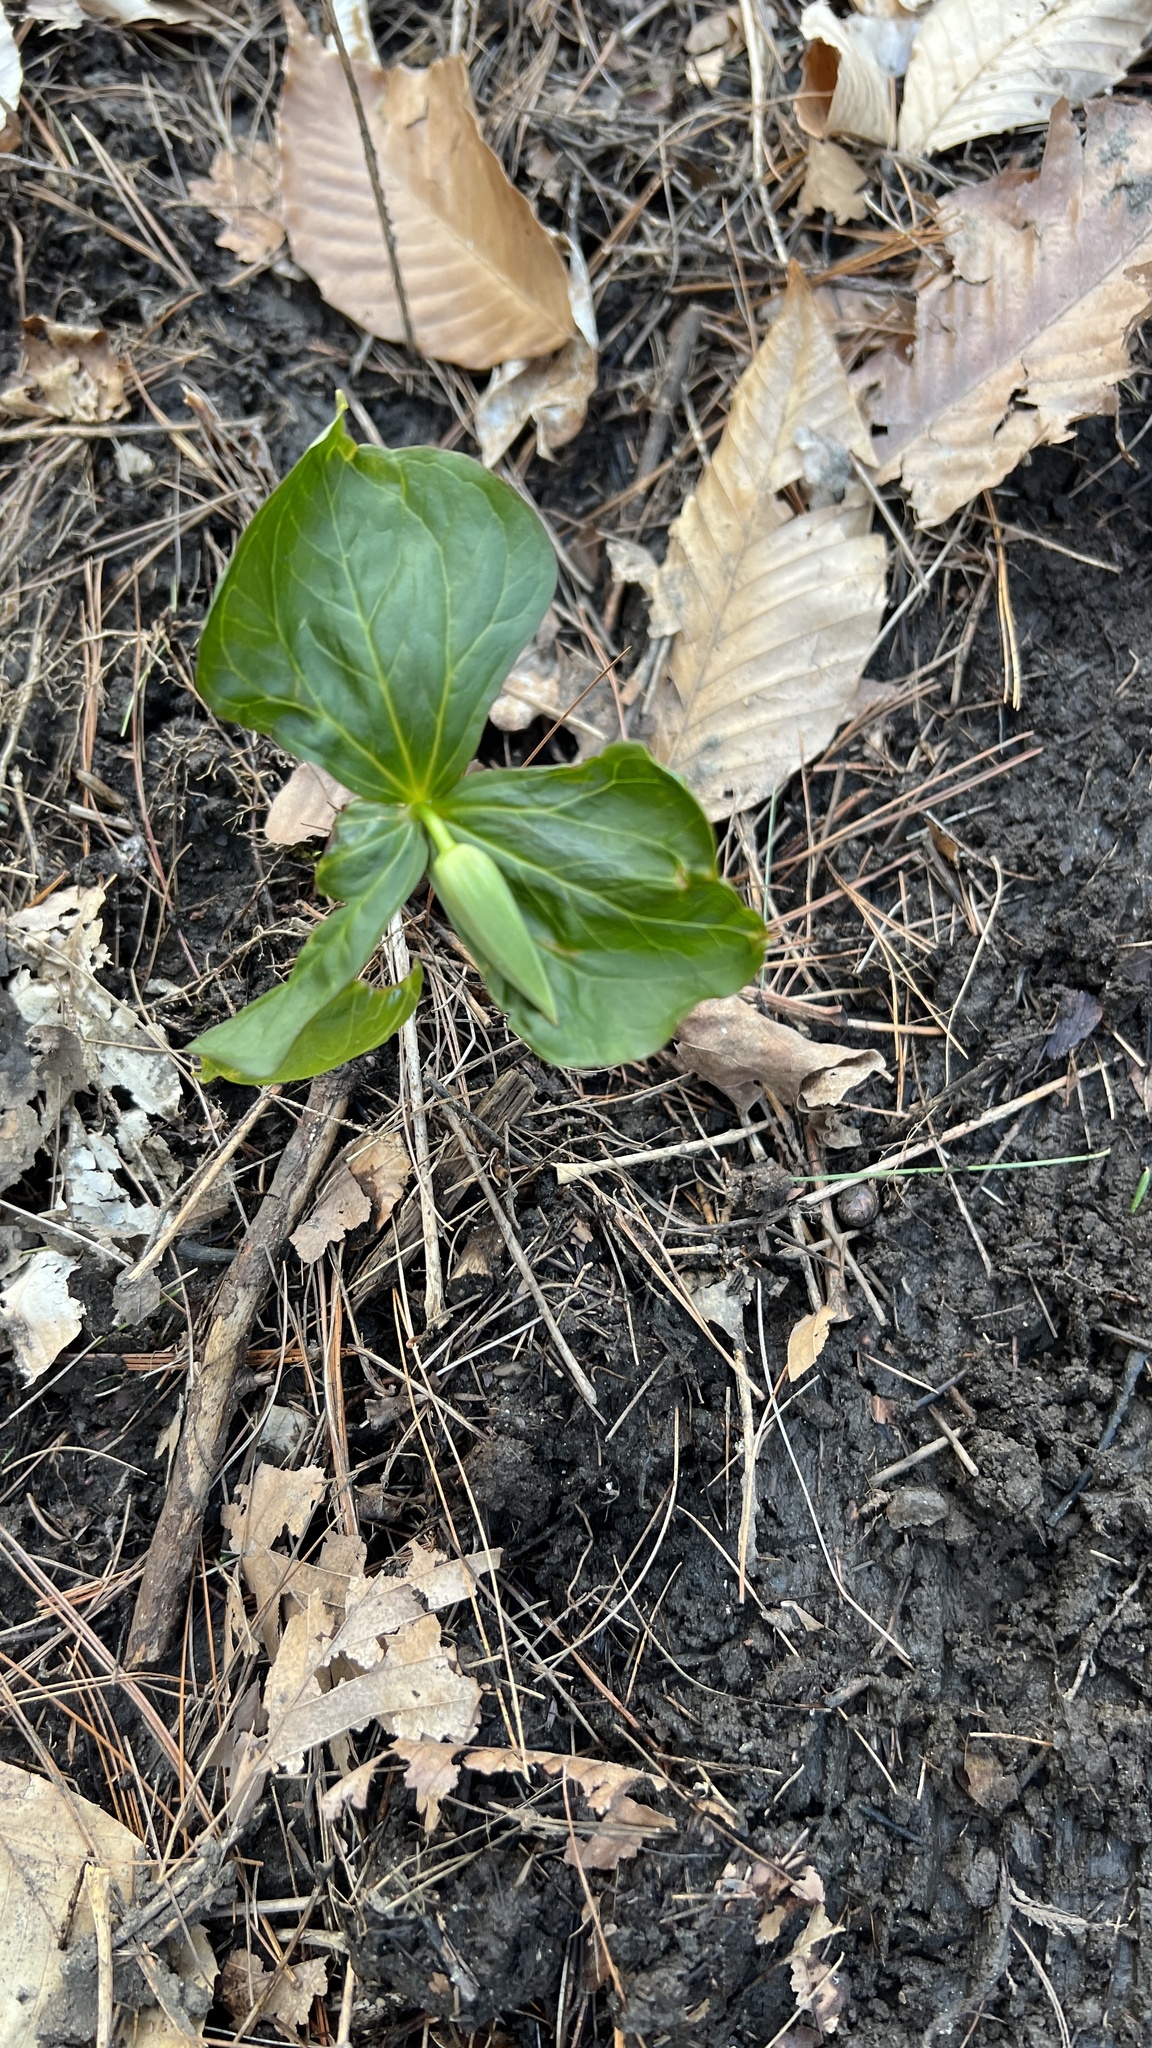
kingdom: Plantae
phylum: Tracheophyta
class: Liliopsida
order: Liliales
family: Melanthiaceae
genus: Trillium
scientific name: Trillium erectum
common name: Purple trillium
